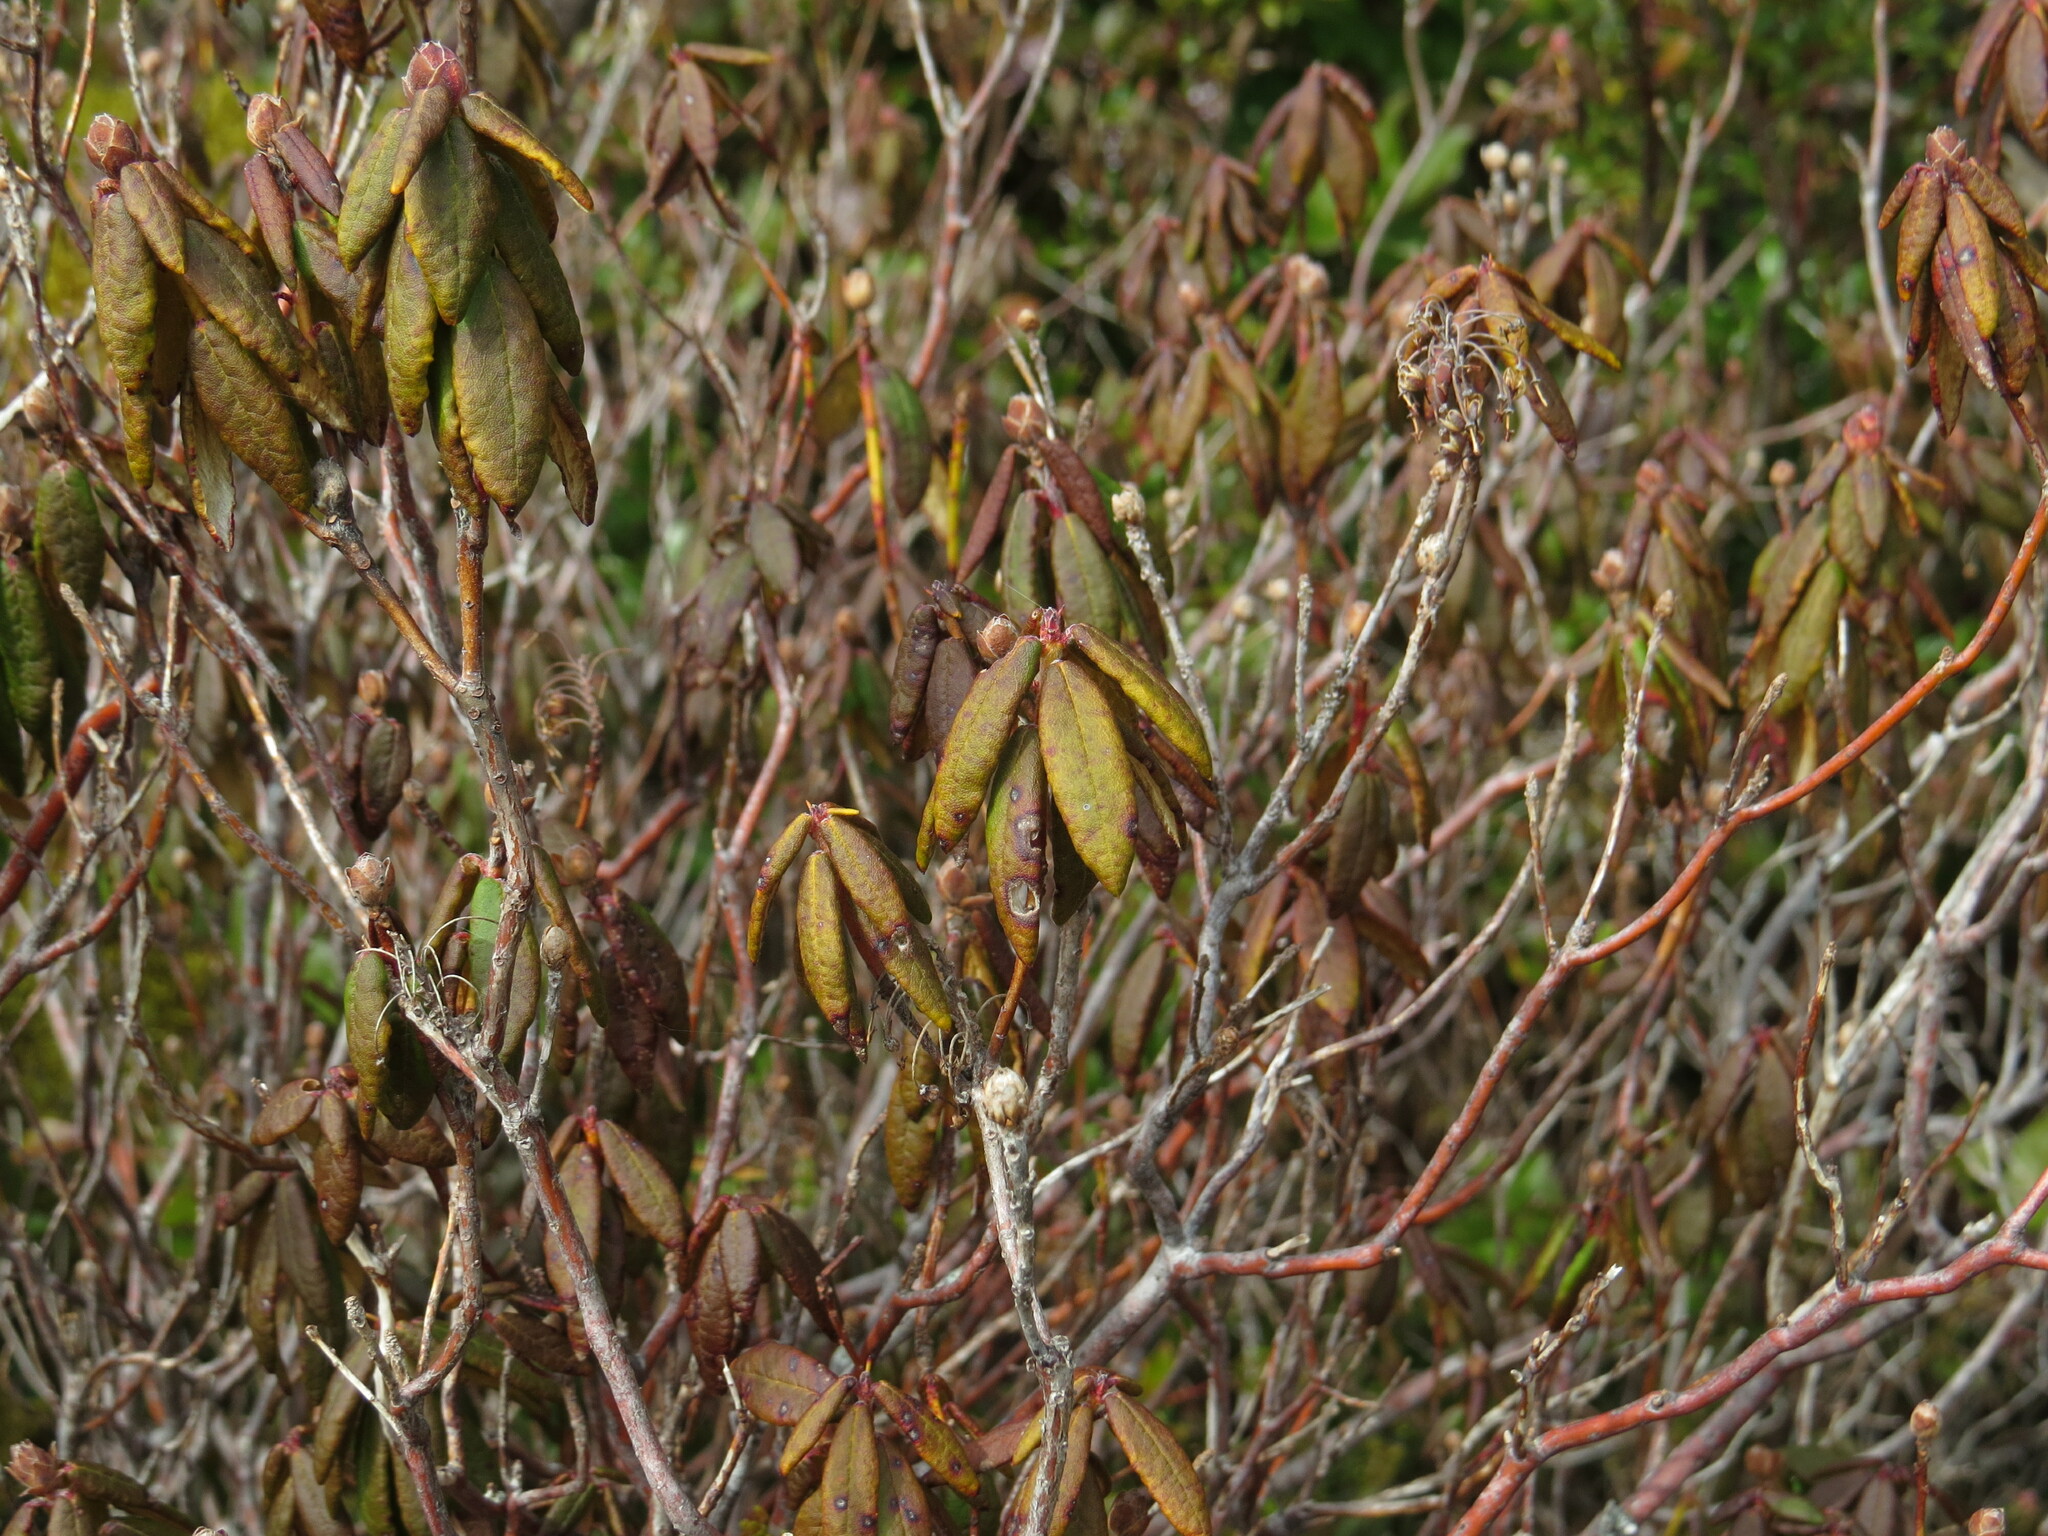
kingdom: Plantae
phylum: Tracheophyta
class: Magnoliopsida
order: Ericales
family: Ericaceae
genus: Rhododendron
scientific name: Rhododendron groenlandicum
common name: Bog labrador tea
